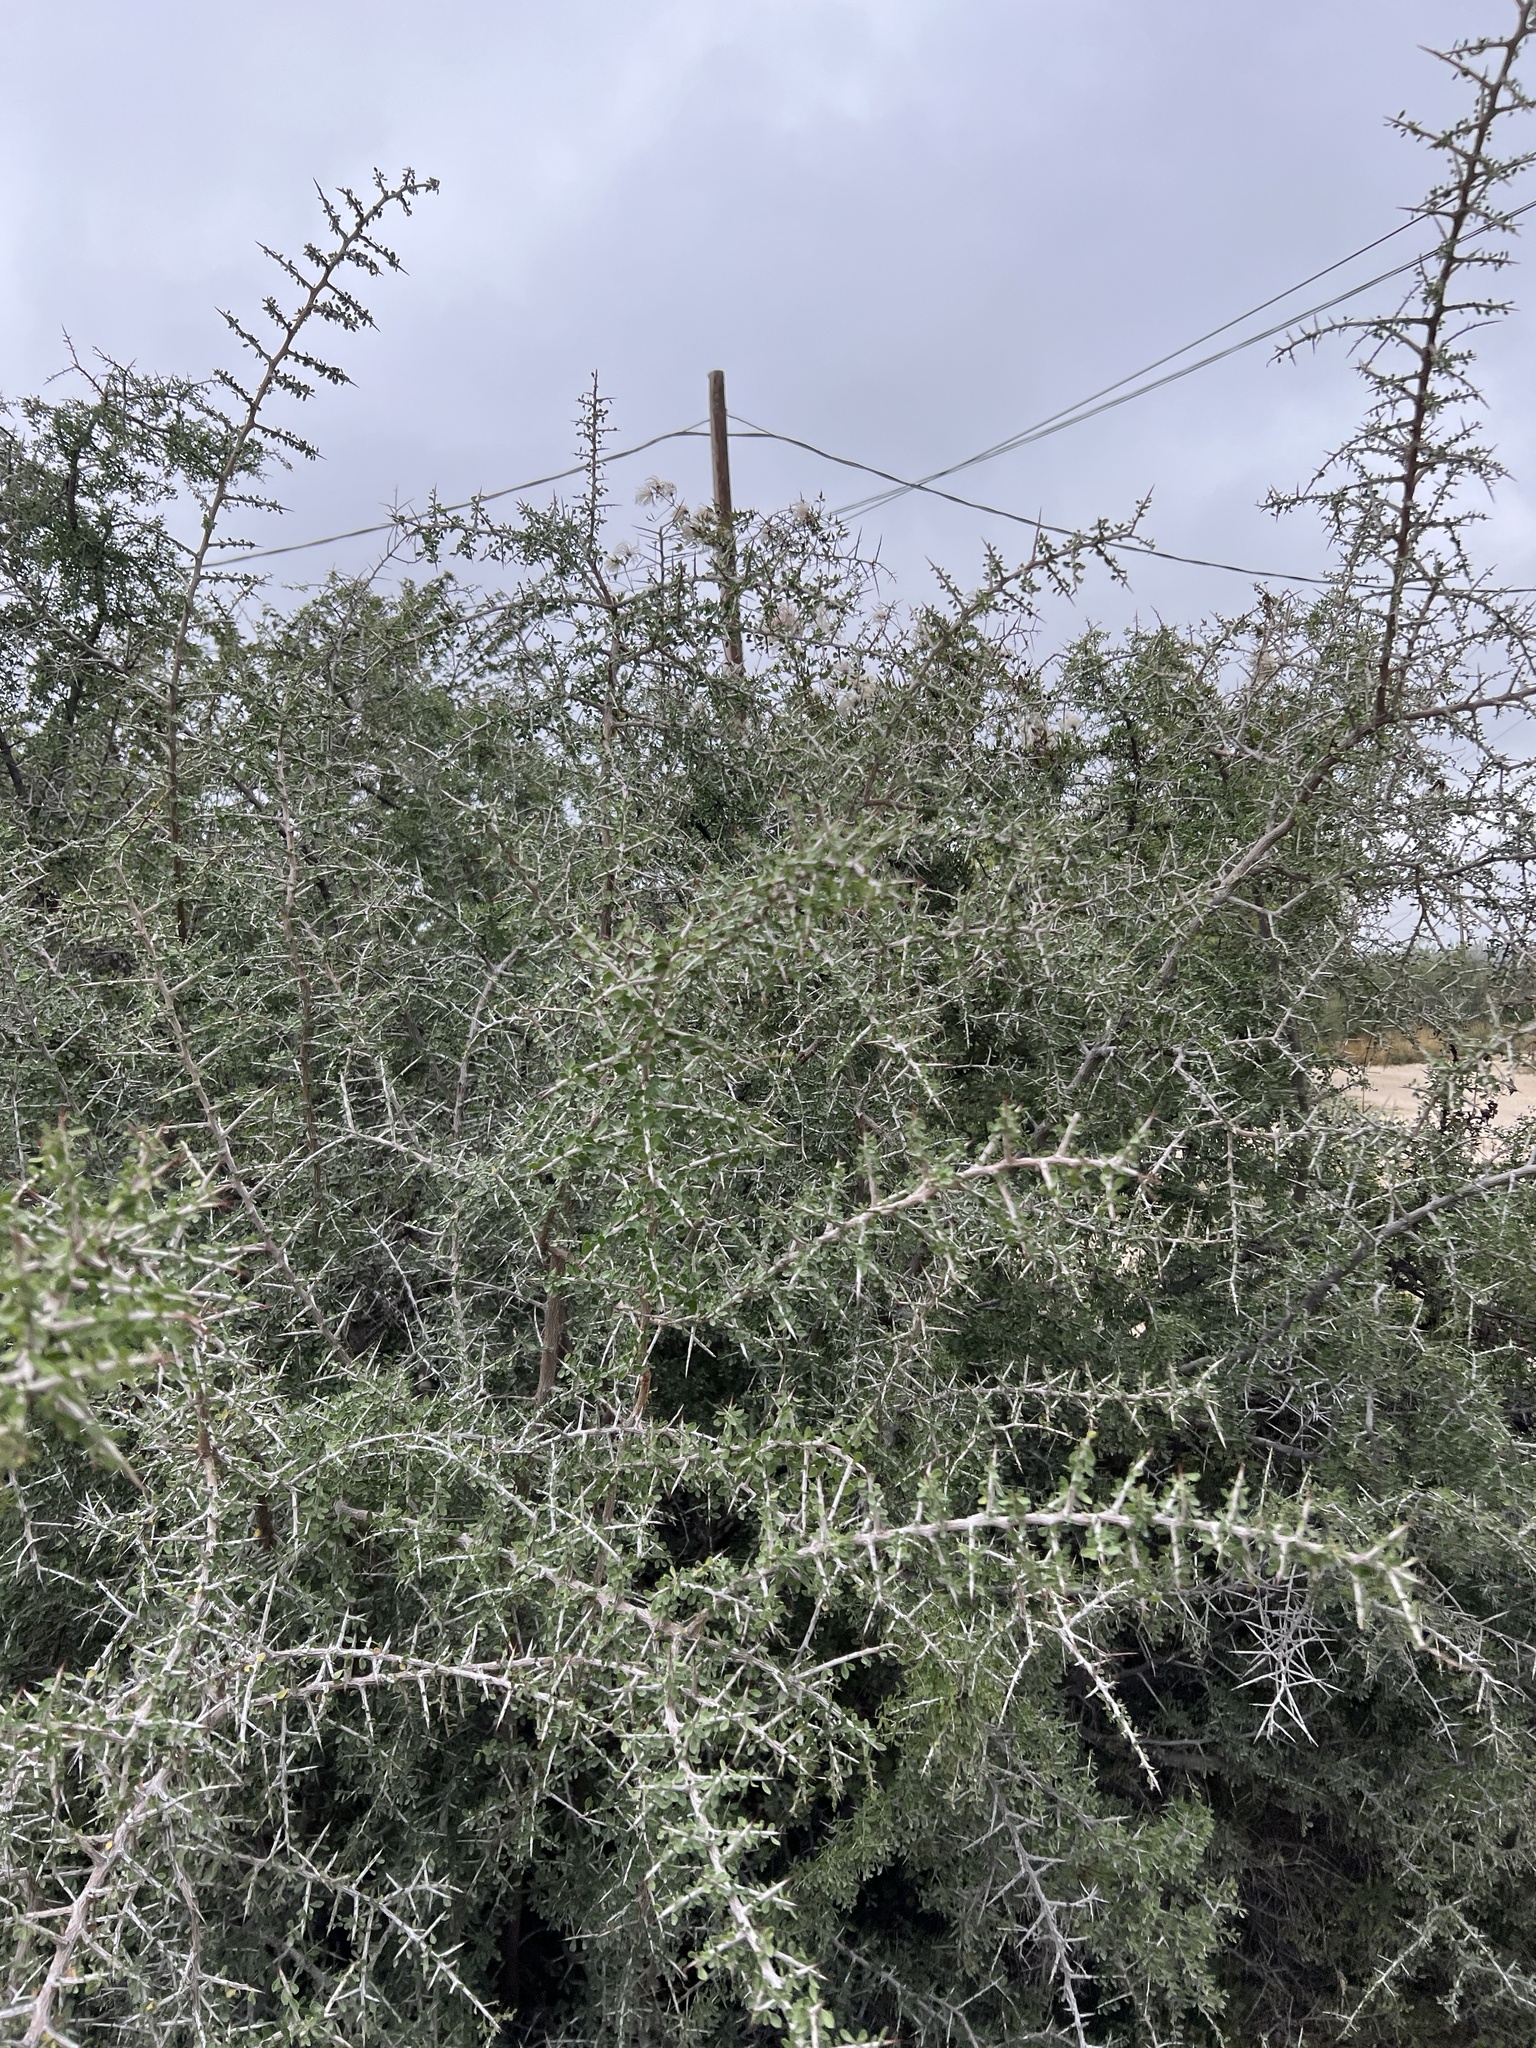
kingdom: Plantae
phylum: Tracheophyta
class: Magnoliopsida
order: Rosales
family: Rhamnaceae
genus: Condalia
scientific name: Condalia viridis
